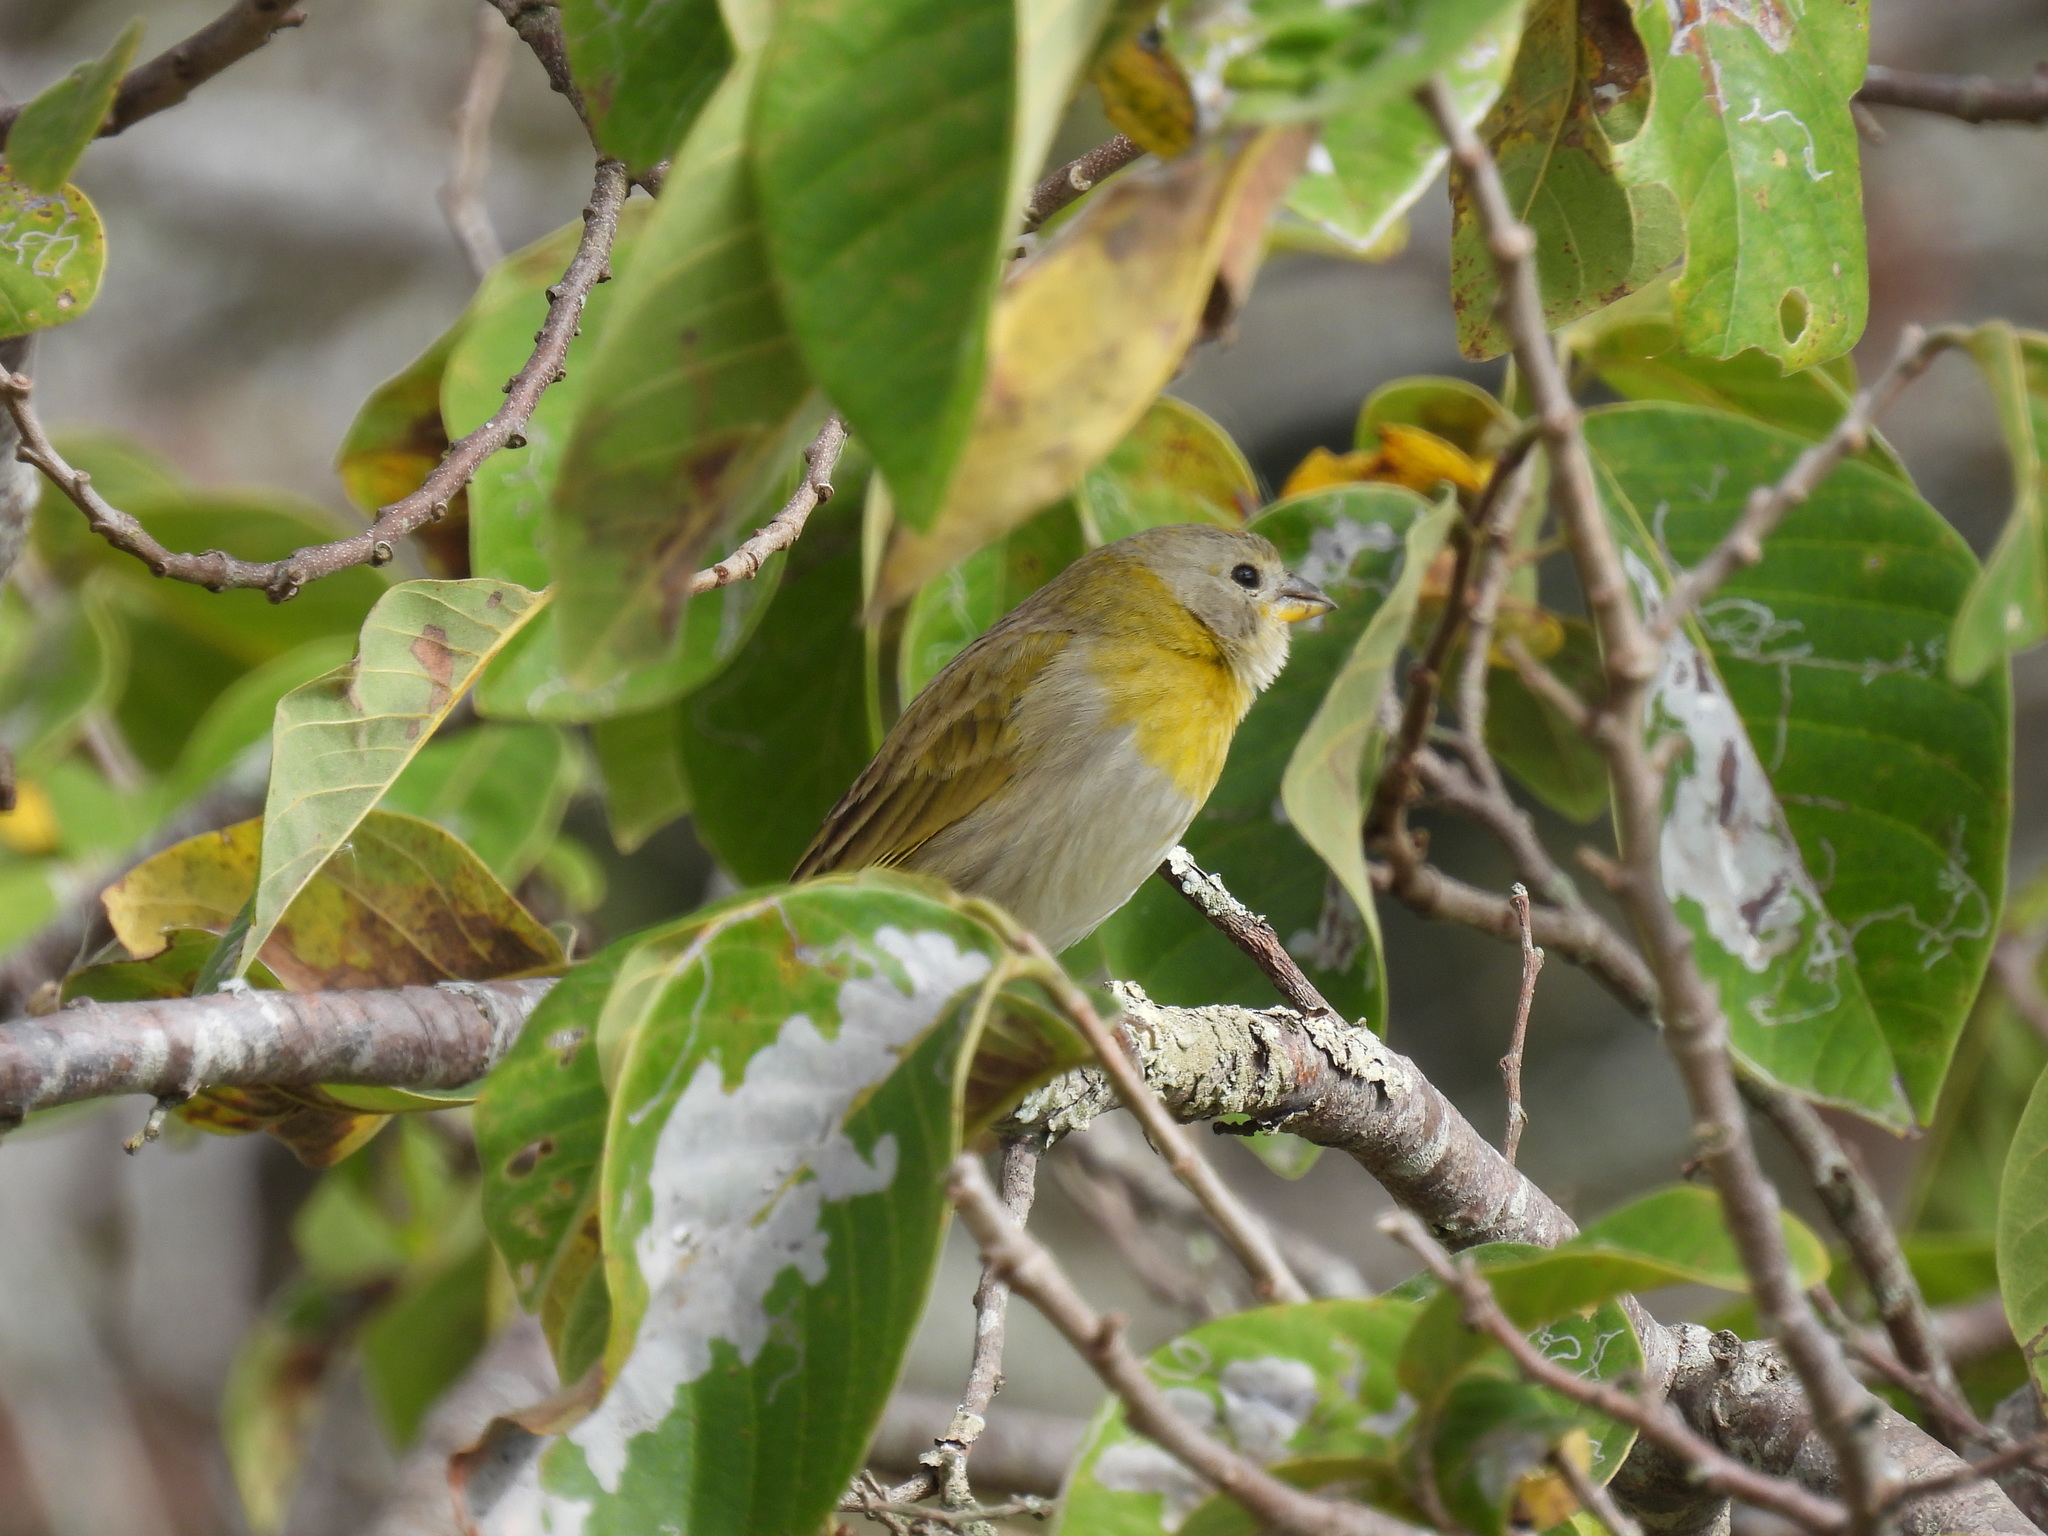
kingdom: Animalia
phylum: Chordata
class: Aves
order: Passeriformes
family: Thraupidae
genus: Sicalis
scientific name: Sicalis flaveola
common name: Saffron finch
